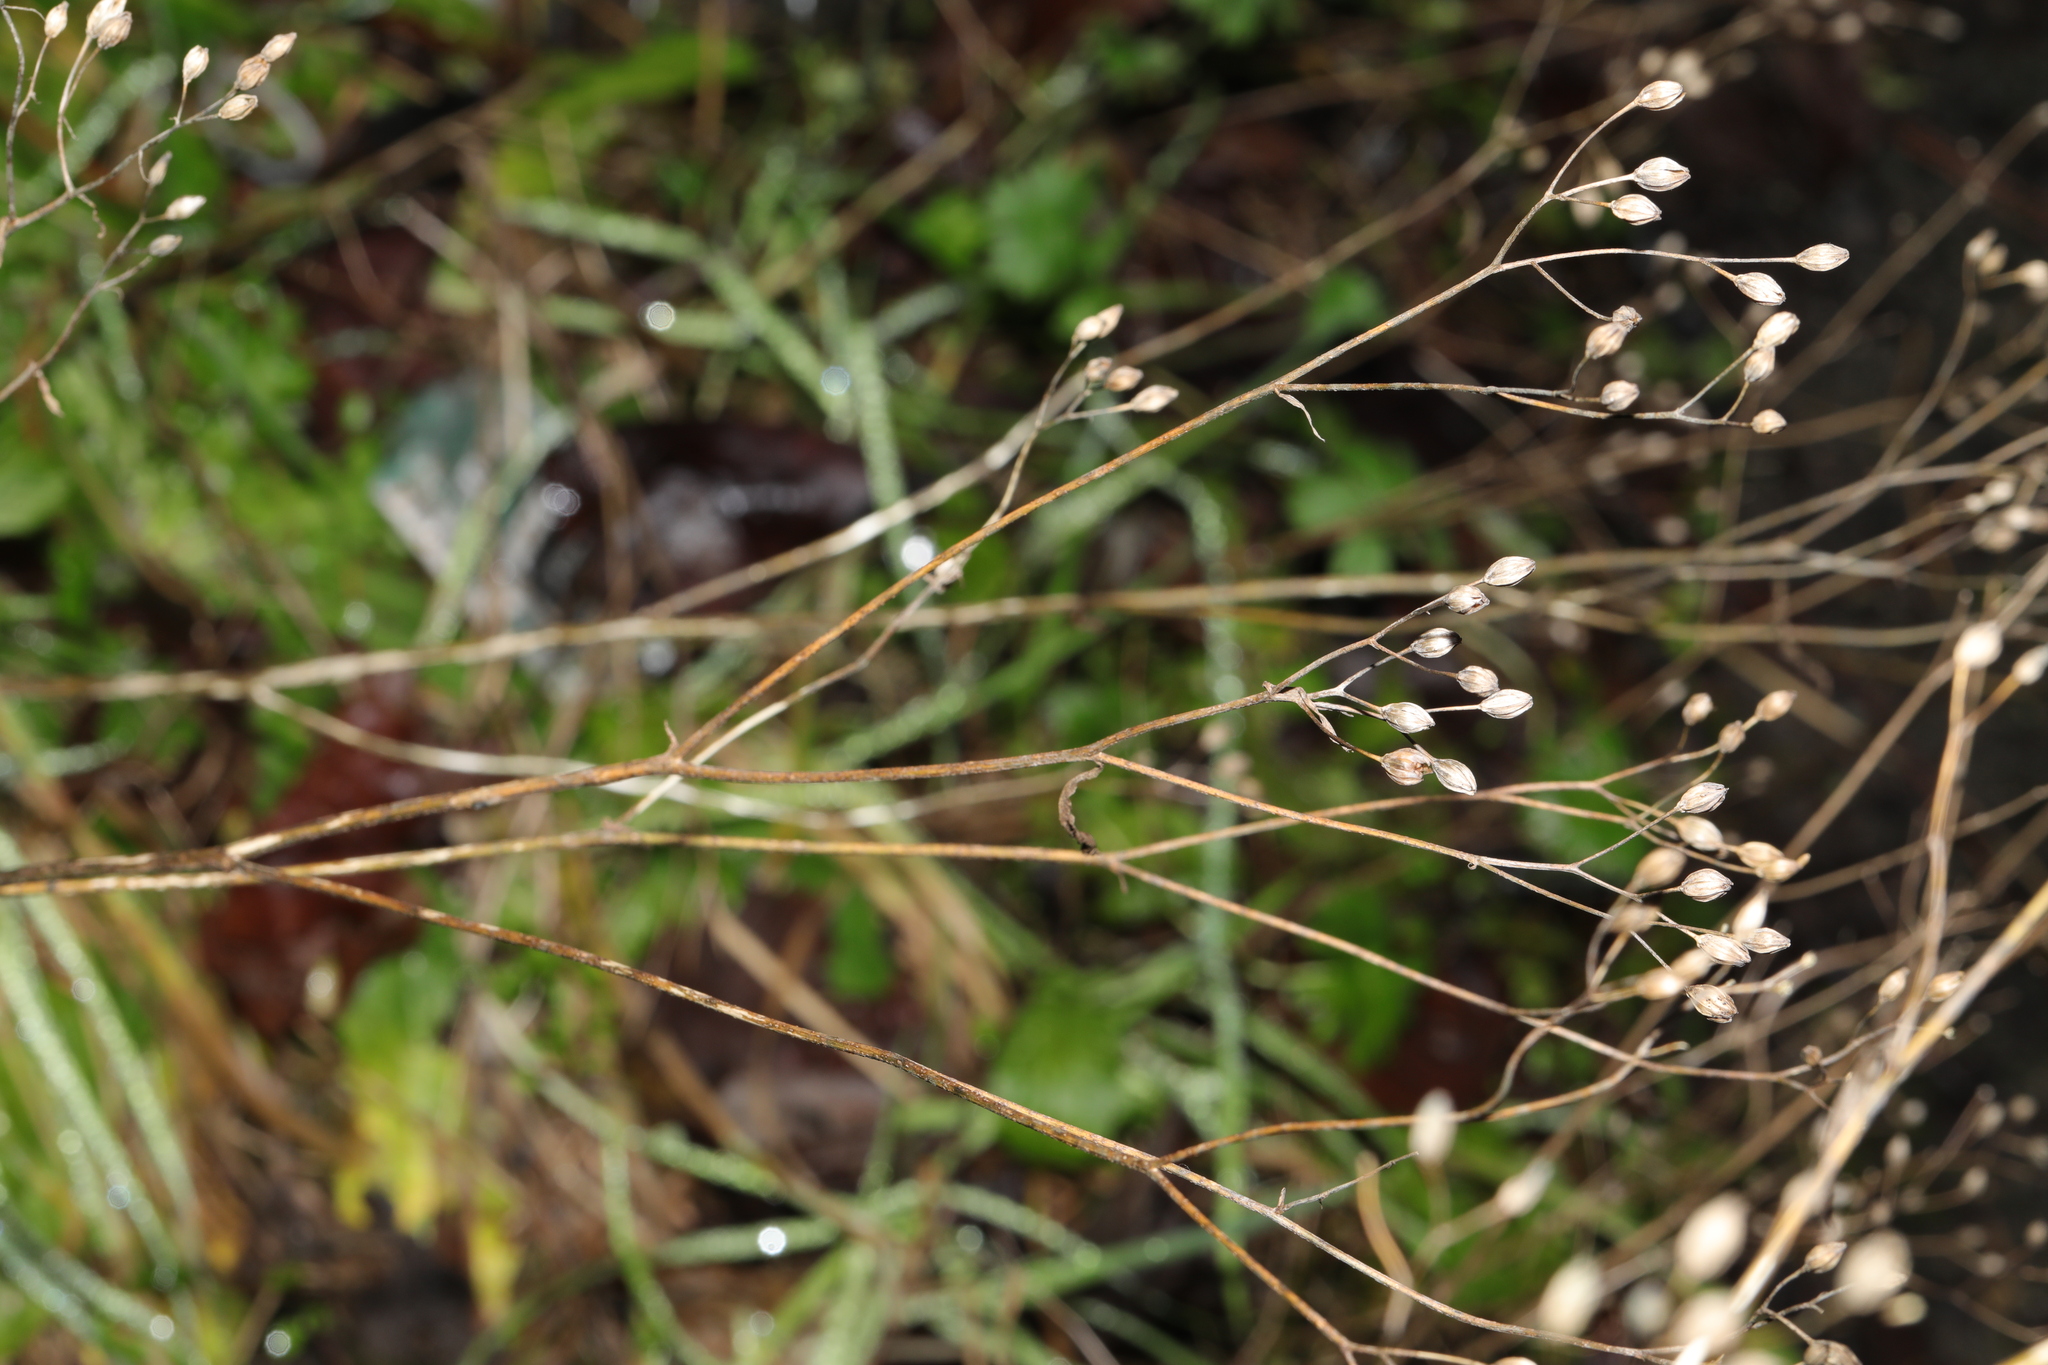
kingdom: Plantae
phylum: Tracheophyta
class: Magnoliopsida
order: Asterales
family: Asteraceae
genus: Lapsana
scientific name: Lapsana communis
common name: Nipplewort
